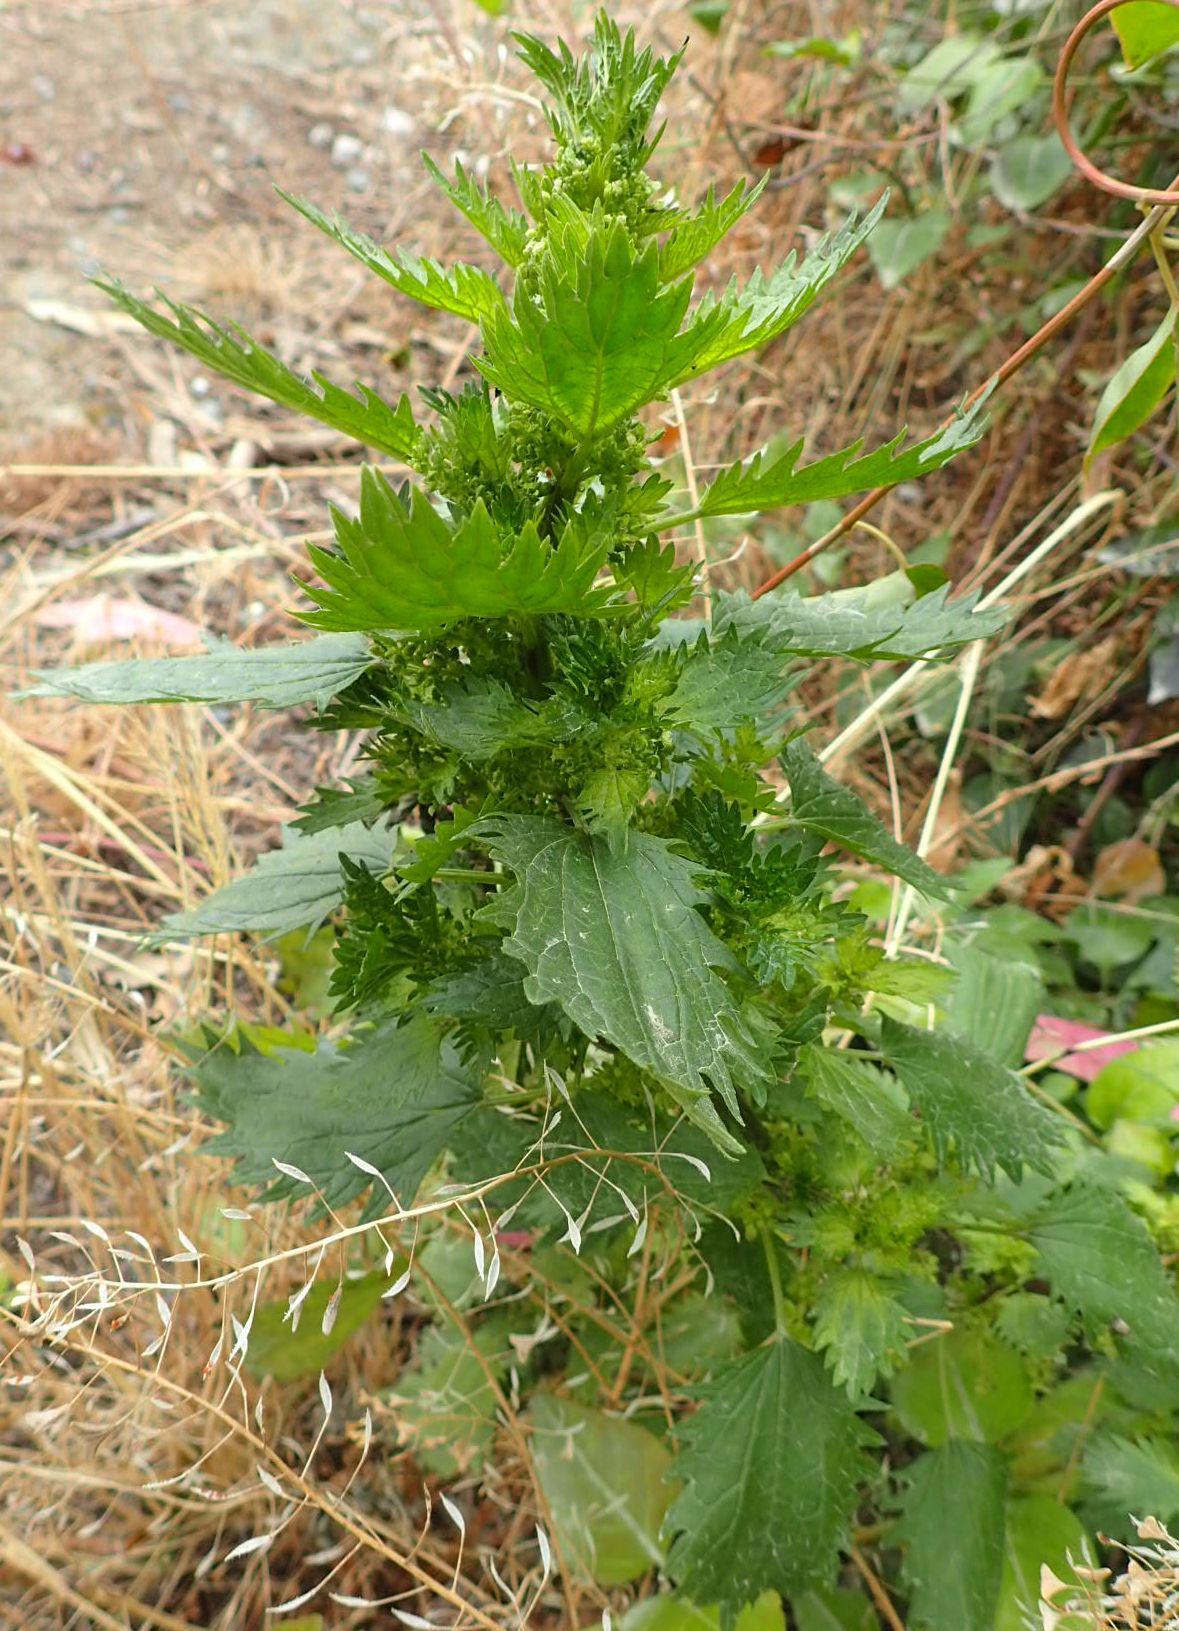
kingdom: Plantae
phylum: Tracheophyta
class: Magnoliopsida
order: Rosales
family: Urticaceae
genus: Urtica
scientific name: Urtica urens
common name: Dwarf nettle
